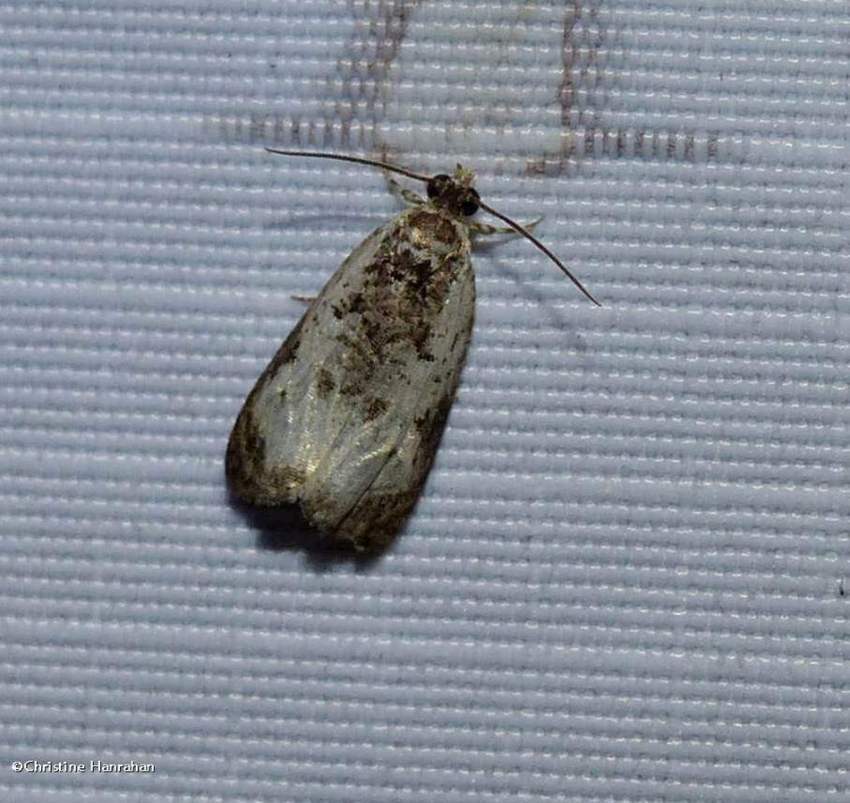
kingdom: Animalia
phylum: Arthropoda
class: Insecta
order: Lepidoptera
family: Tortricidae
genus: Olethreutes
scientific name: Olethreutes malana
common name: Malana leafroller moth
